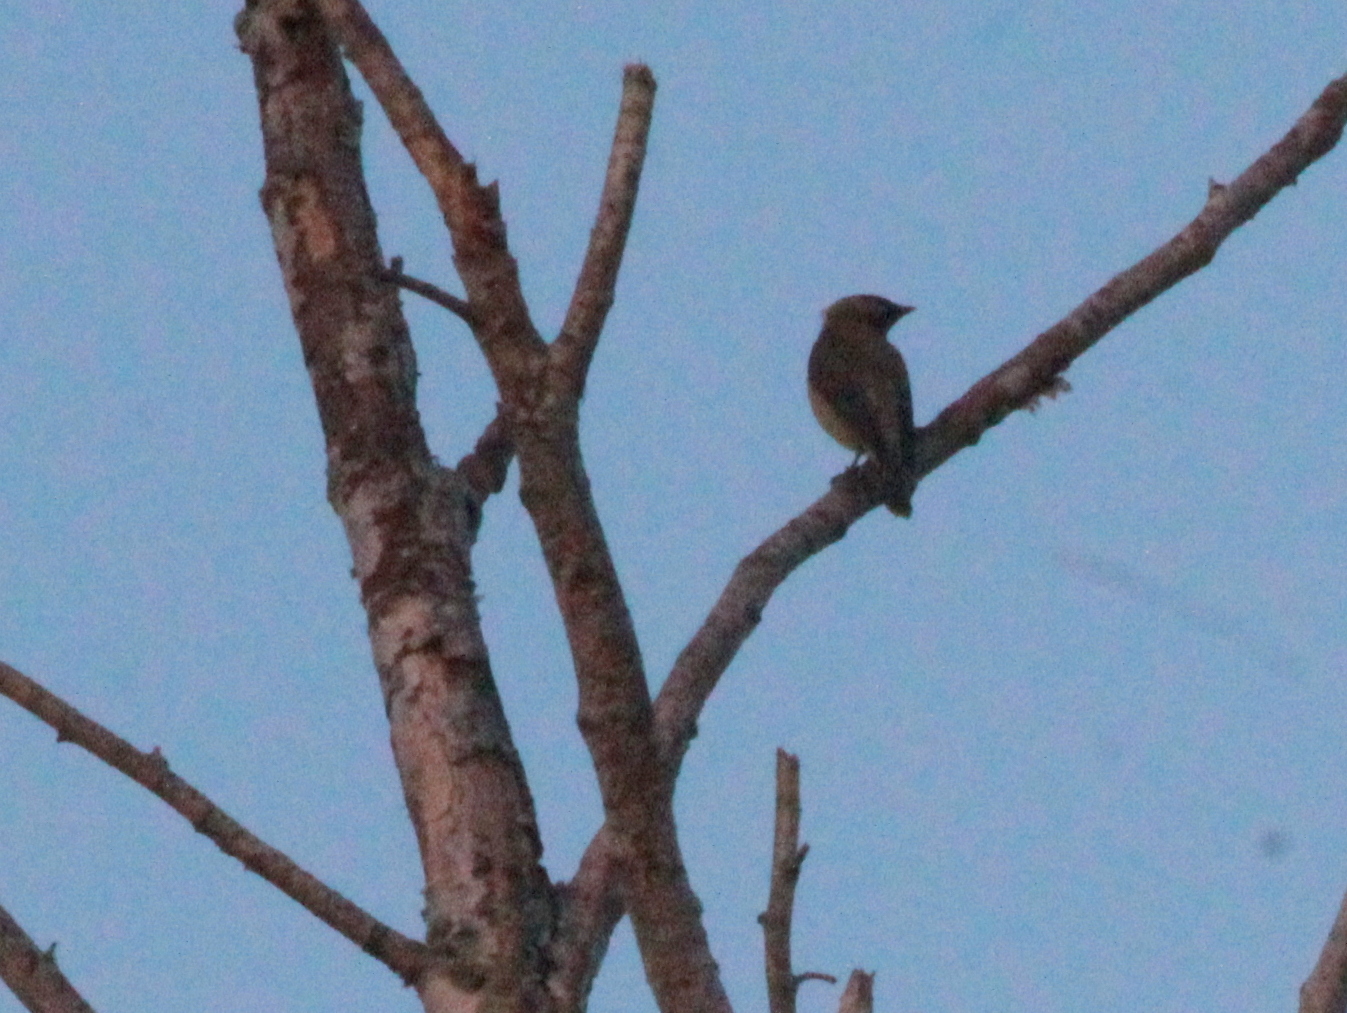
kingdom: Animalia
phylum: Chordata
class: Aves
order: Passeriformes
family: Bombycillidae
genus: Bombycilla
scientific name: Bombycilla cedrorum
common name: Cedar waxwing
